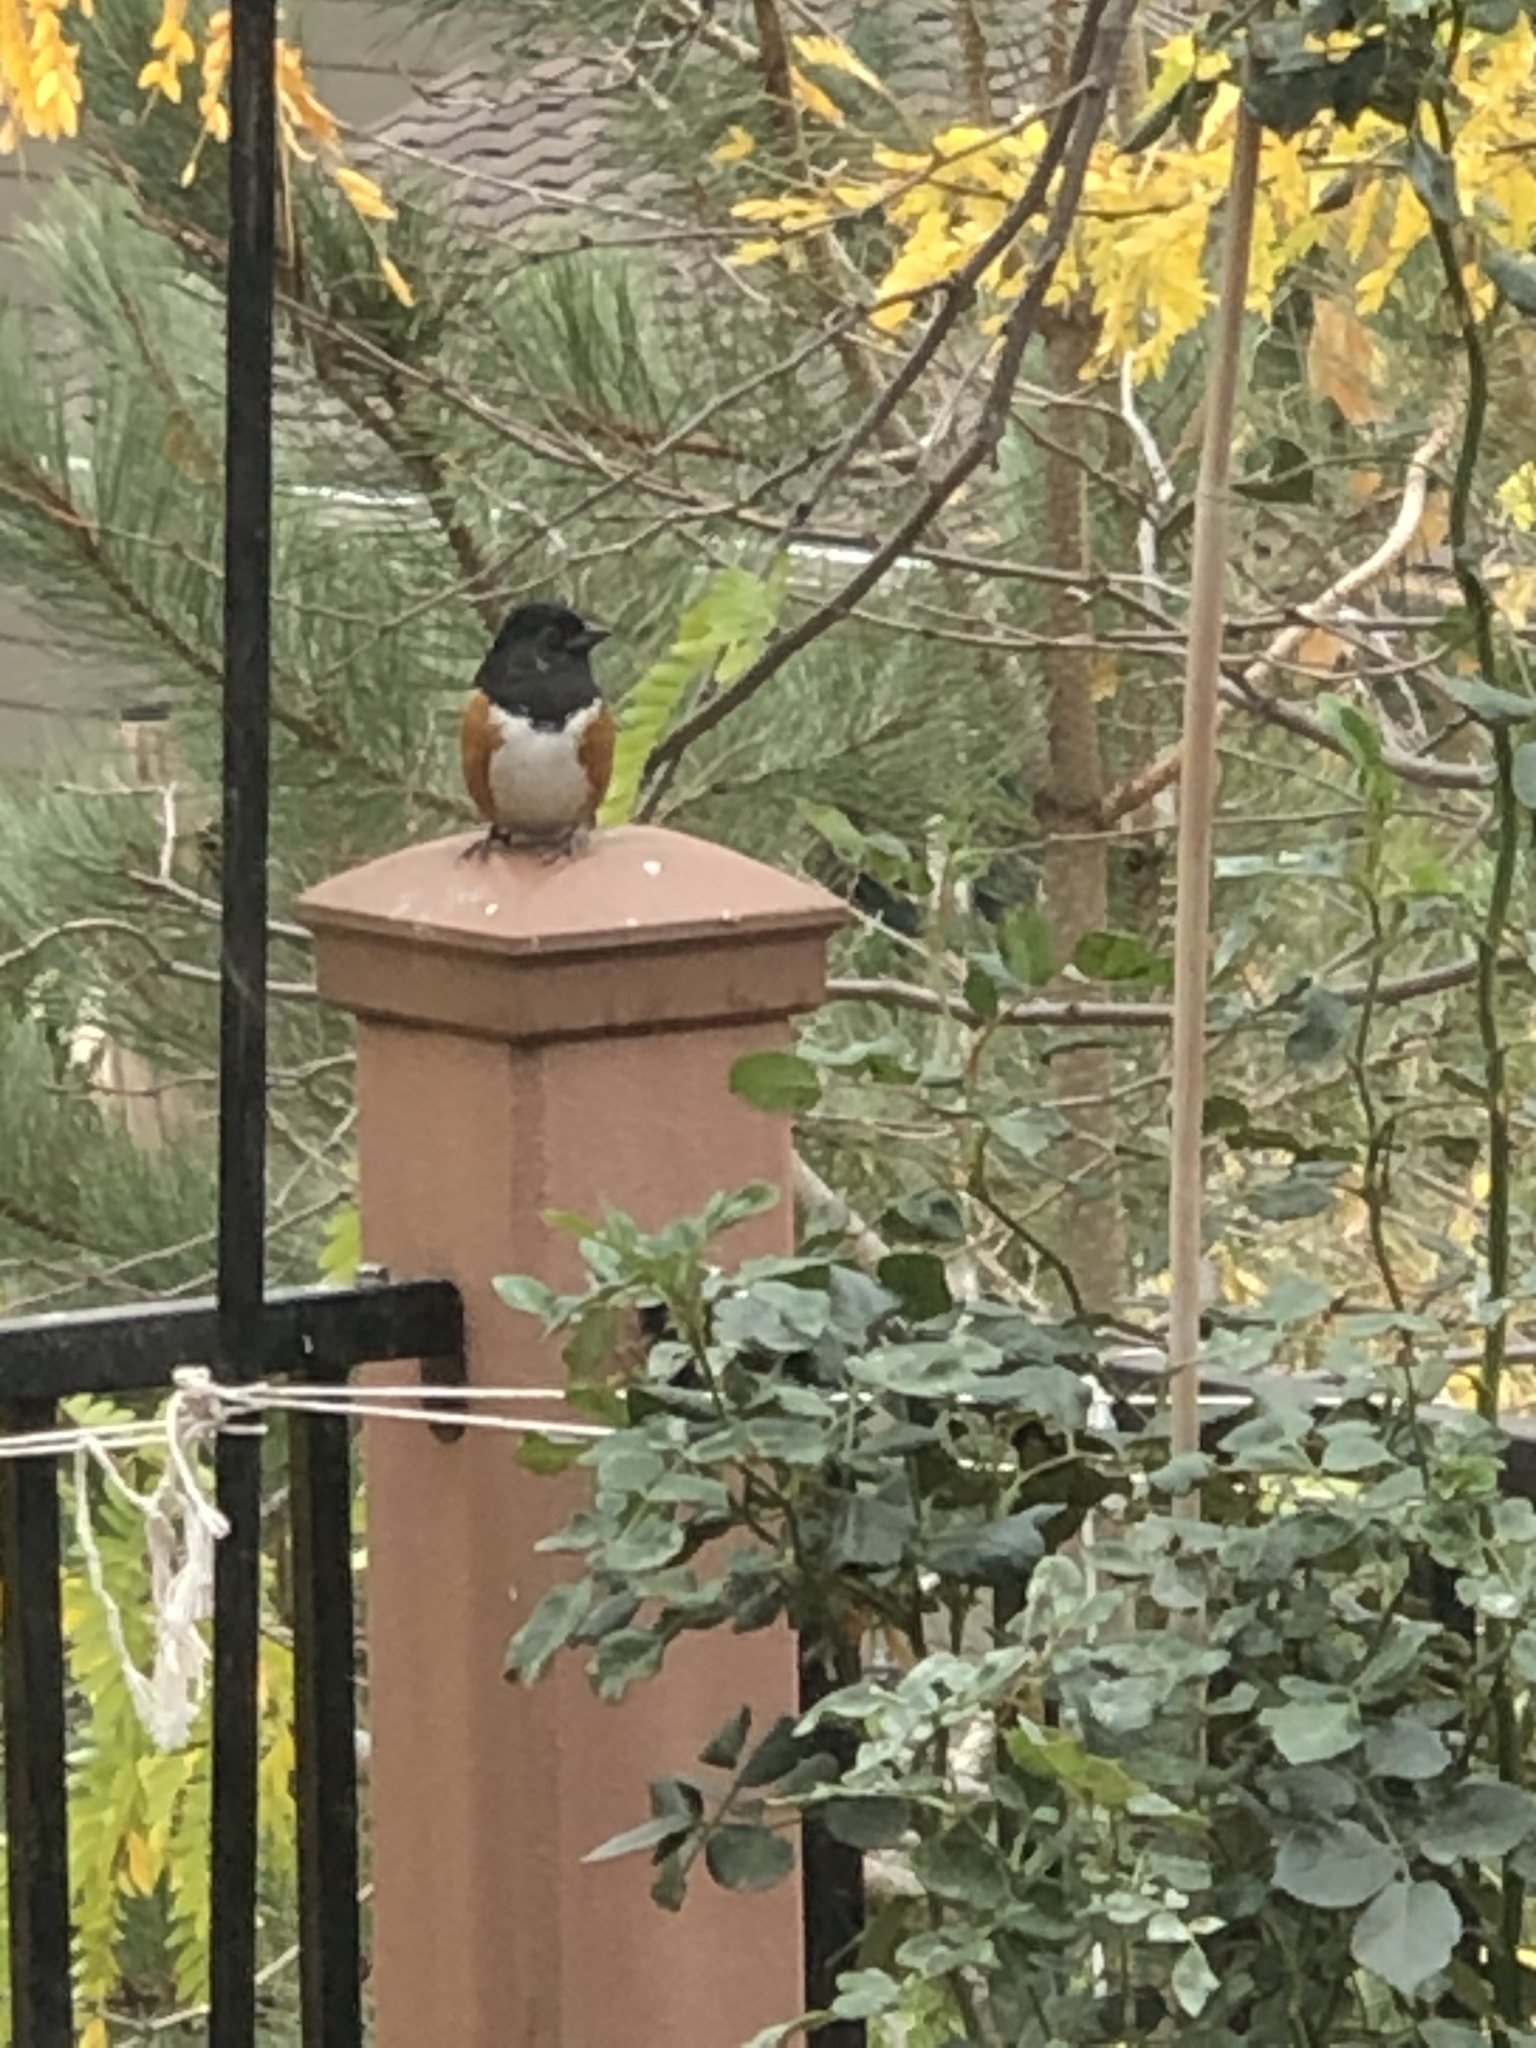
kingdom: Animalia
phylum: Chordata
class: Aves
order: Passeriformes
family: Passerellidae
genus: Pipilo
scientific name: Pipilo maculatus
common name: Spotted towhee
